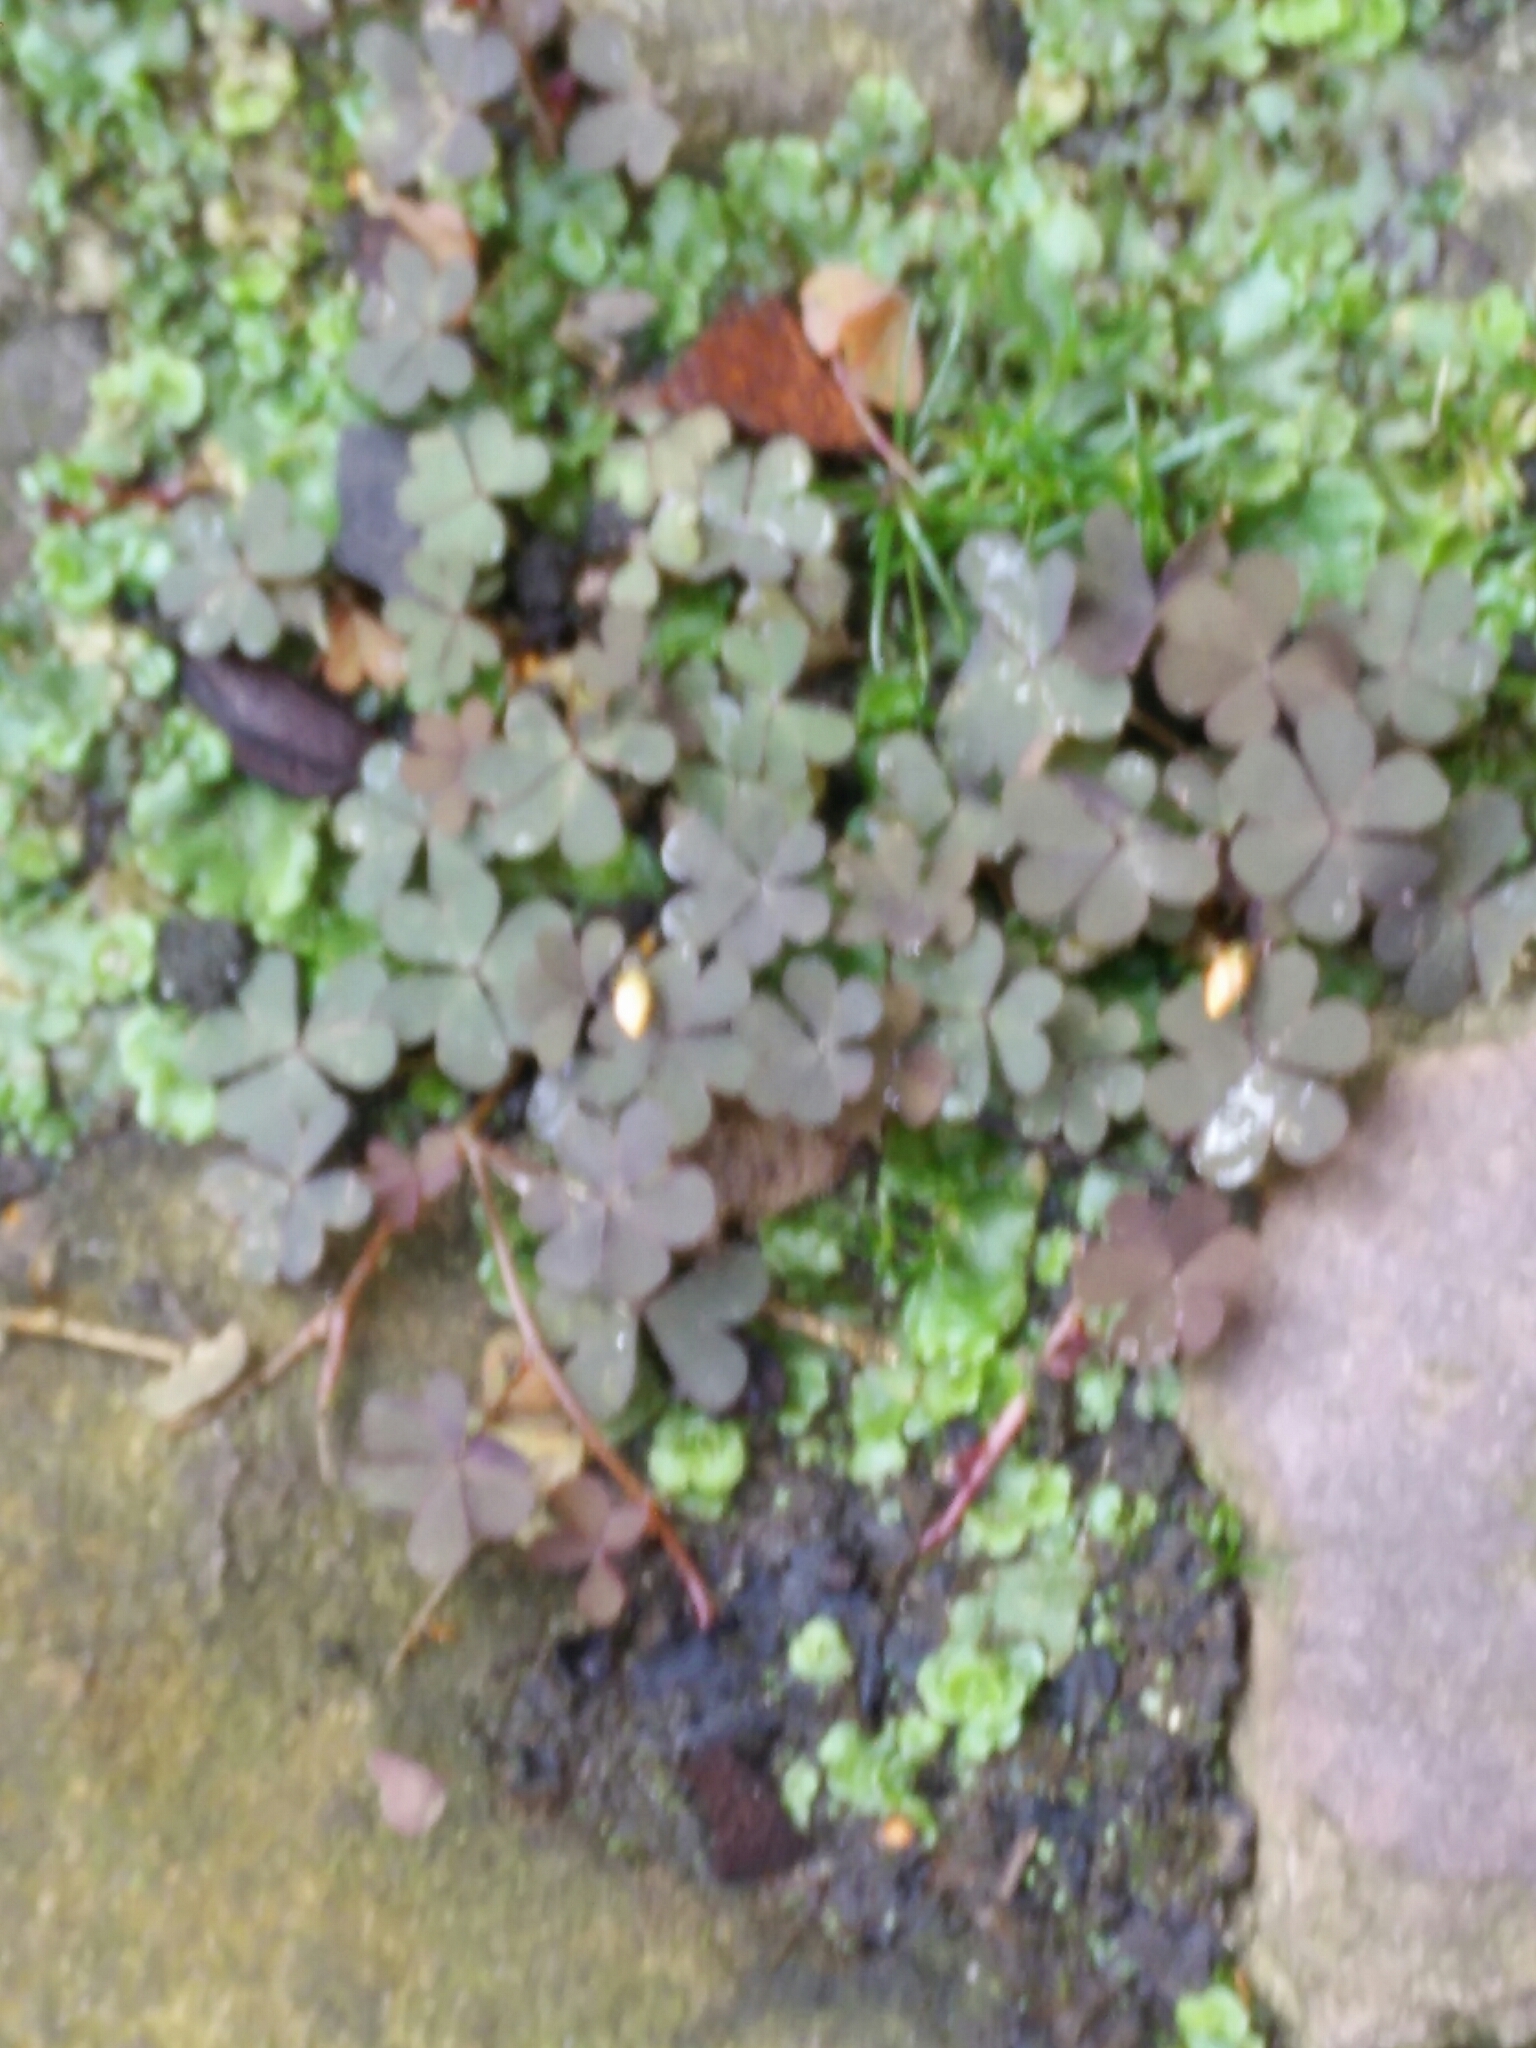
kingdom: Plantae
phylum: Tracheophyta
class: Magnoliopsida
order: Oxalidales
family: Oxalidaceae
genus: Oxalis
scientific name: Oxalis corniculata
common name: Procumbent yellow-sorrel
